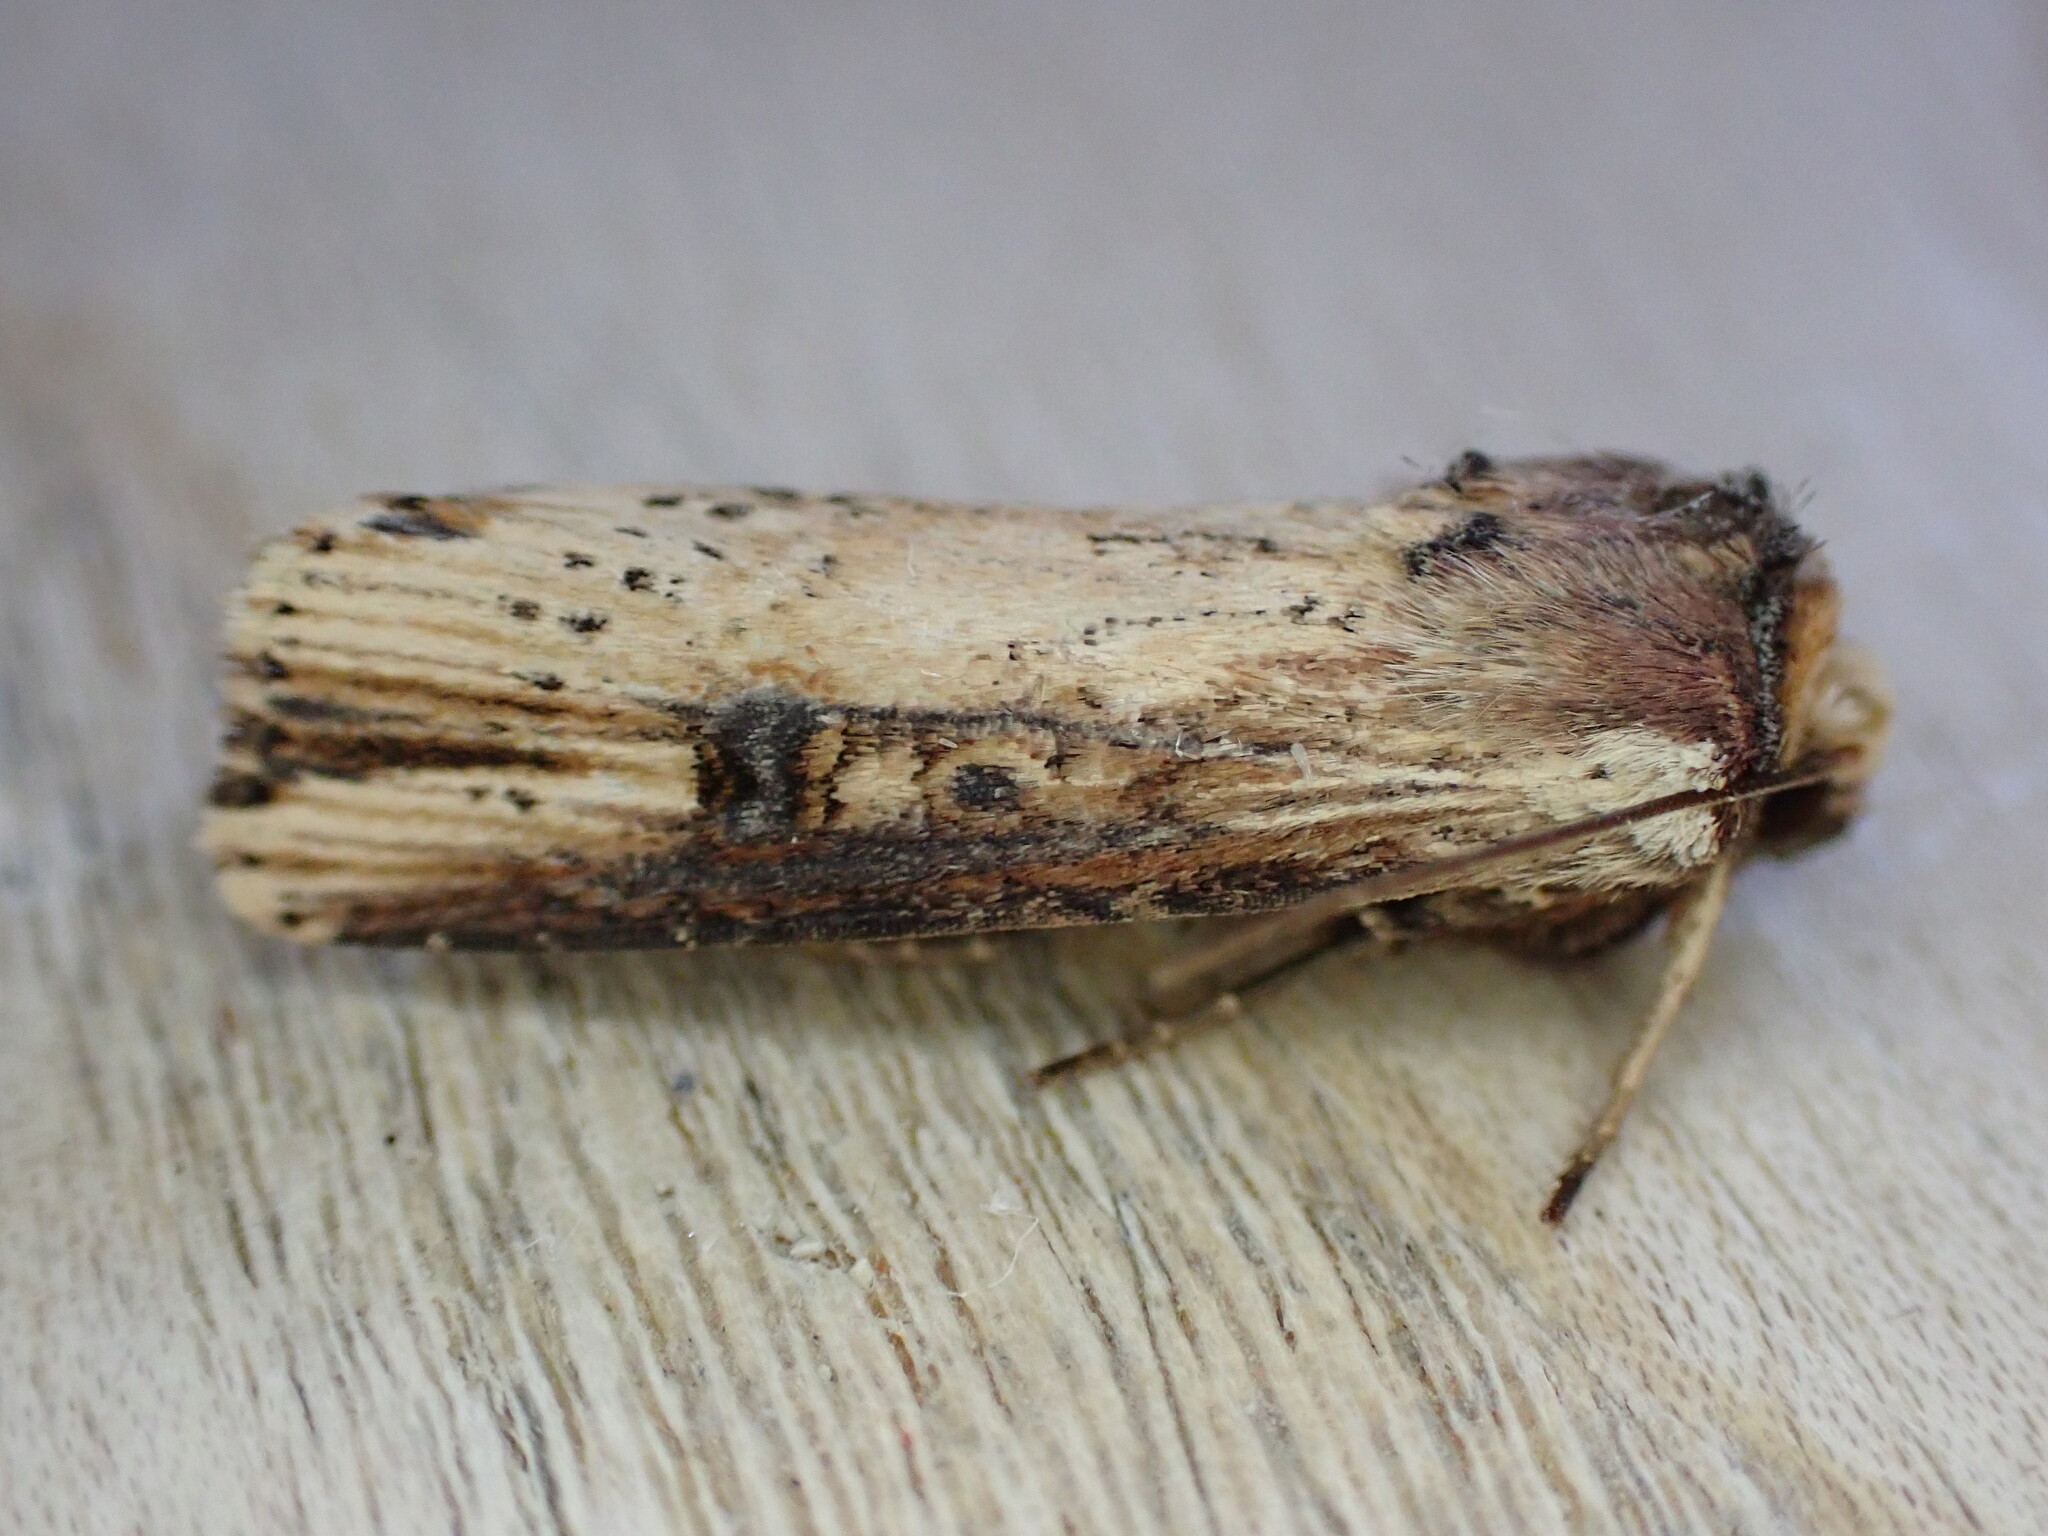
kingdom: Animalia
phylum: Arthropoda
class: Insecta
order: Lepidoptera
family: Noctuidae
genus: Axylia
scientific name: Axylia putris
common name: Flame
